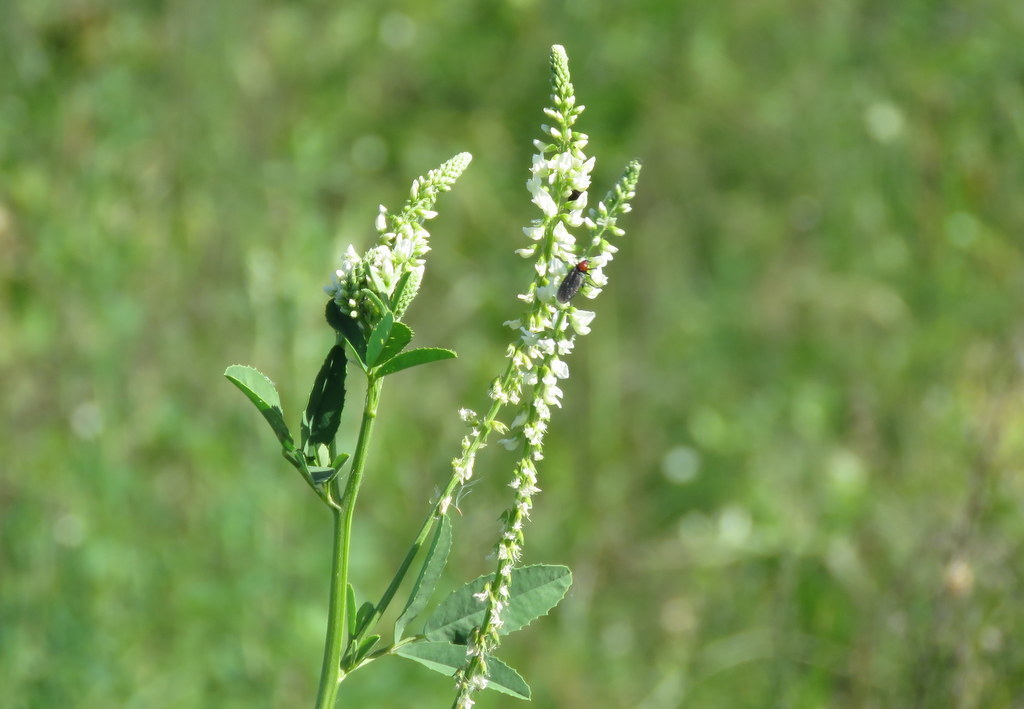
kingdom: Plantae
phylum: Tracheophyta
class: Magnoliopsida
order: Fabales
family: Fabaceae
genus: Melilotus
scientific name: Melilotus albus
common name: White melilot
